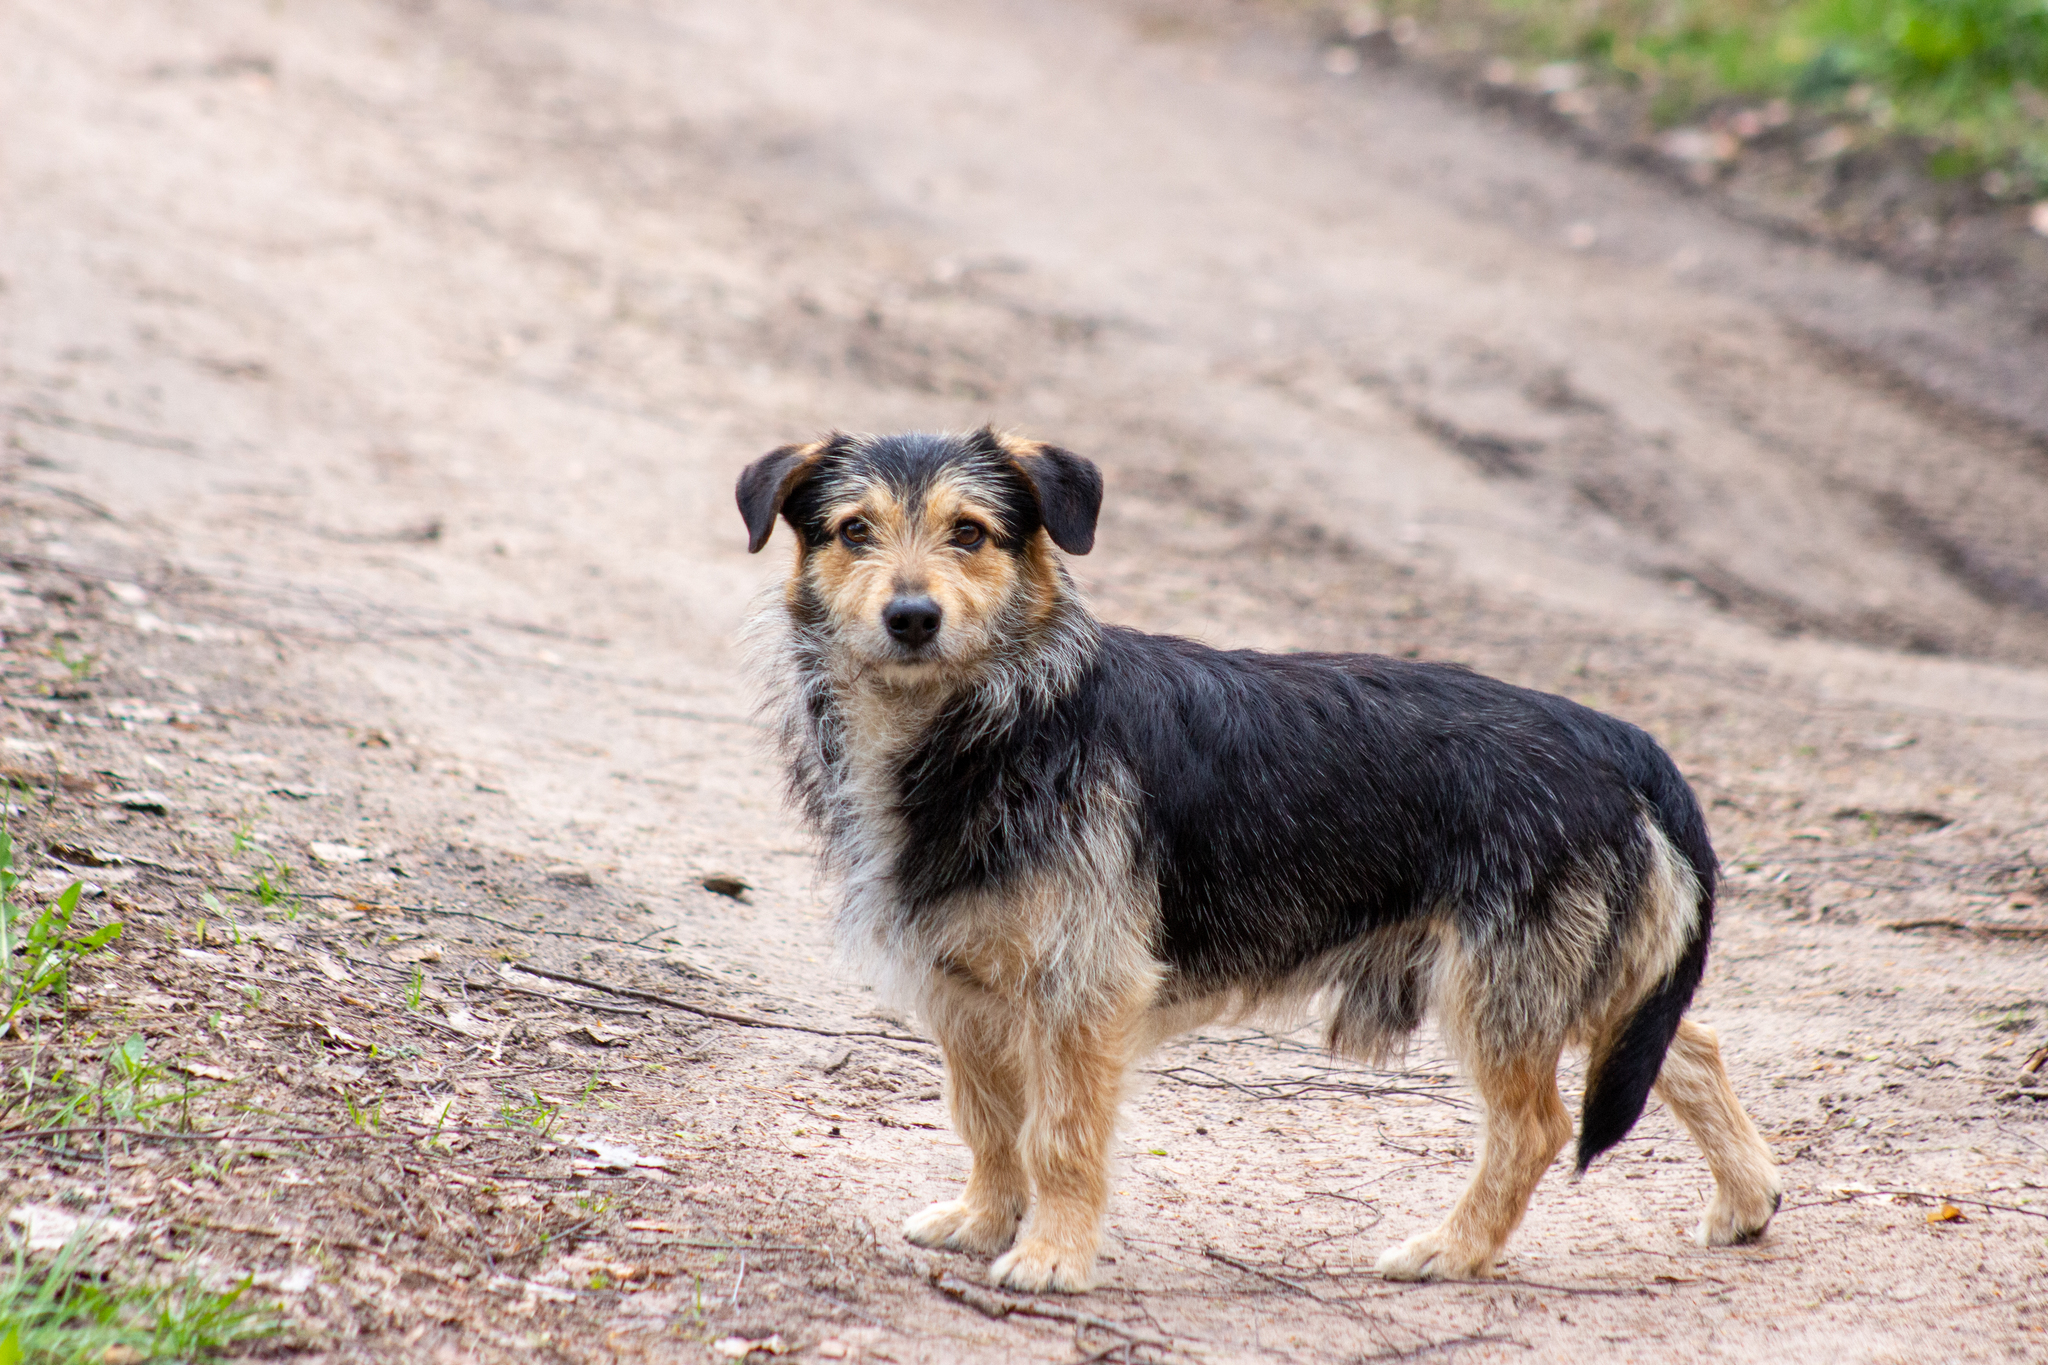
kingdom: Animalia
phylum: Chordata
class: Mammalia
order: Carnivora
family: Canidae
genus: Canis
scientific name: Canis lupus
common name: Gray wolf
